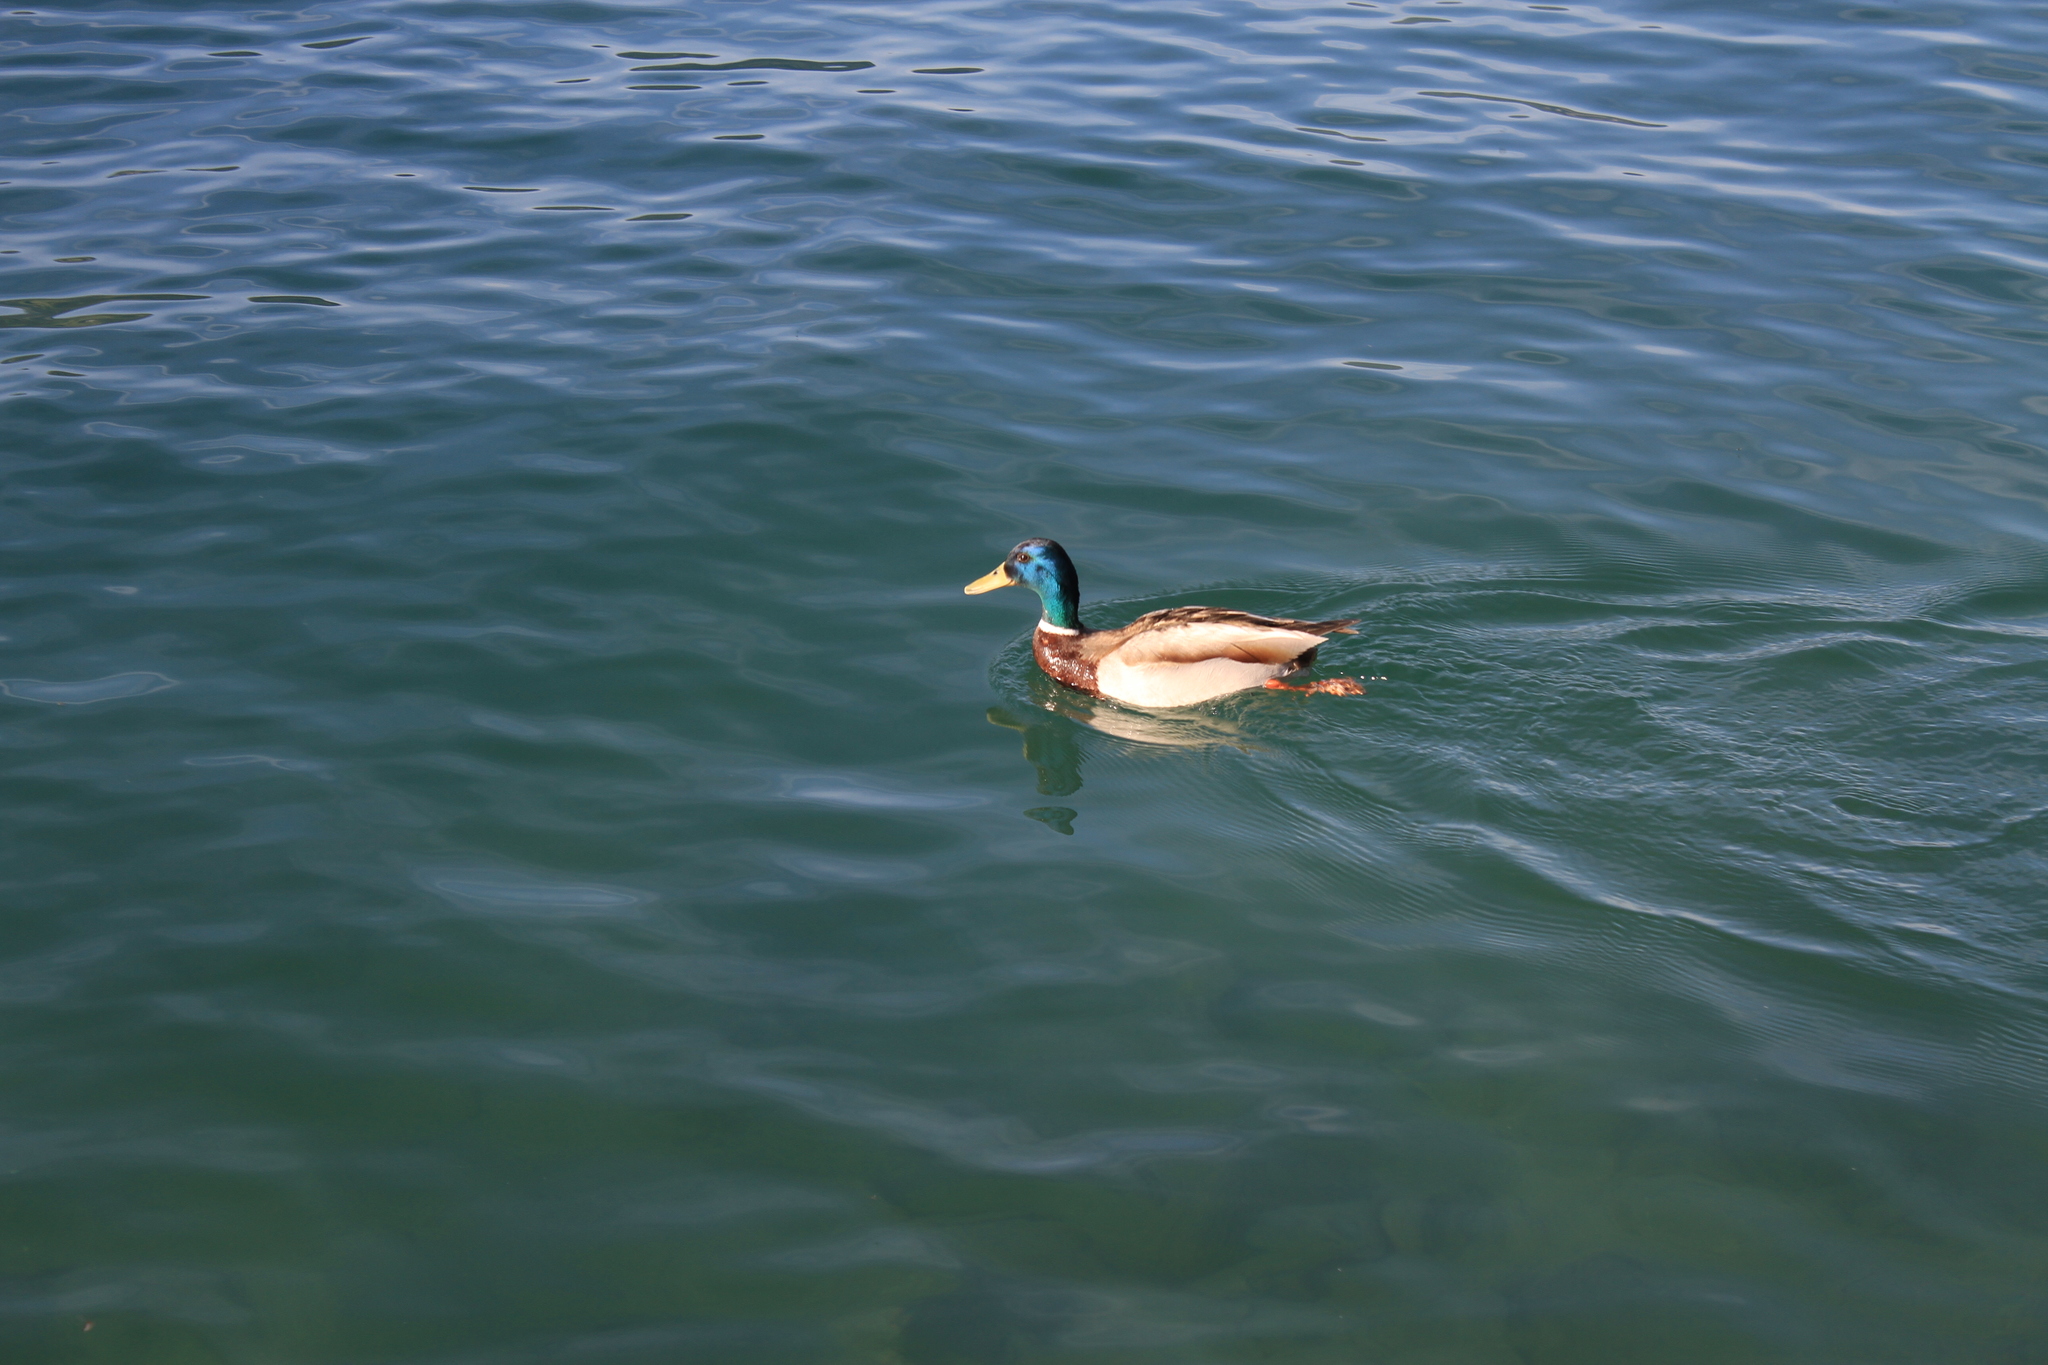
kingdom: Animalia
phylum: Chordata
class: Aves
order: Anseriformes
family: Anatidae
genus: Anas
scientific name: Anas platyrhynchos
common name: Mallard
